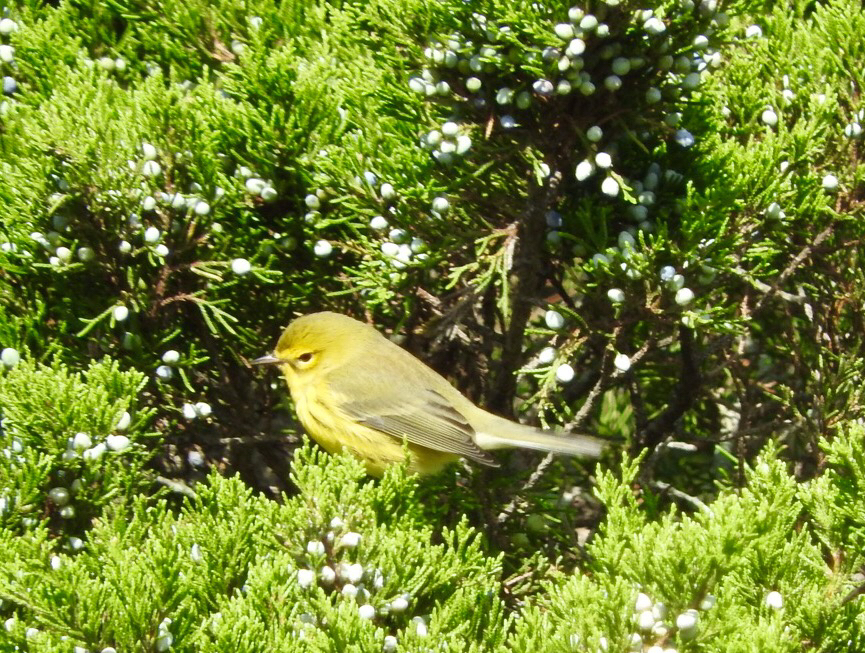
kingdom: Animalia
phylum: Chordata
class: Aves
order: Passeriformes
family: Parulidae
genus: Setophaga
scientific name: Setophaga discolor
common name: Prairie warbler
